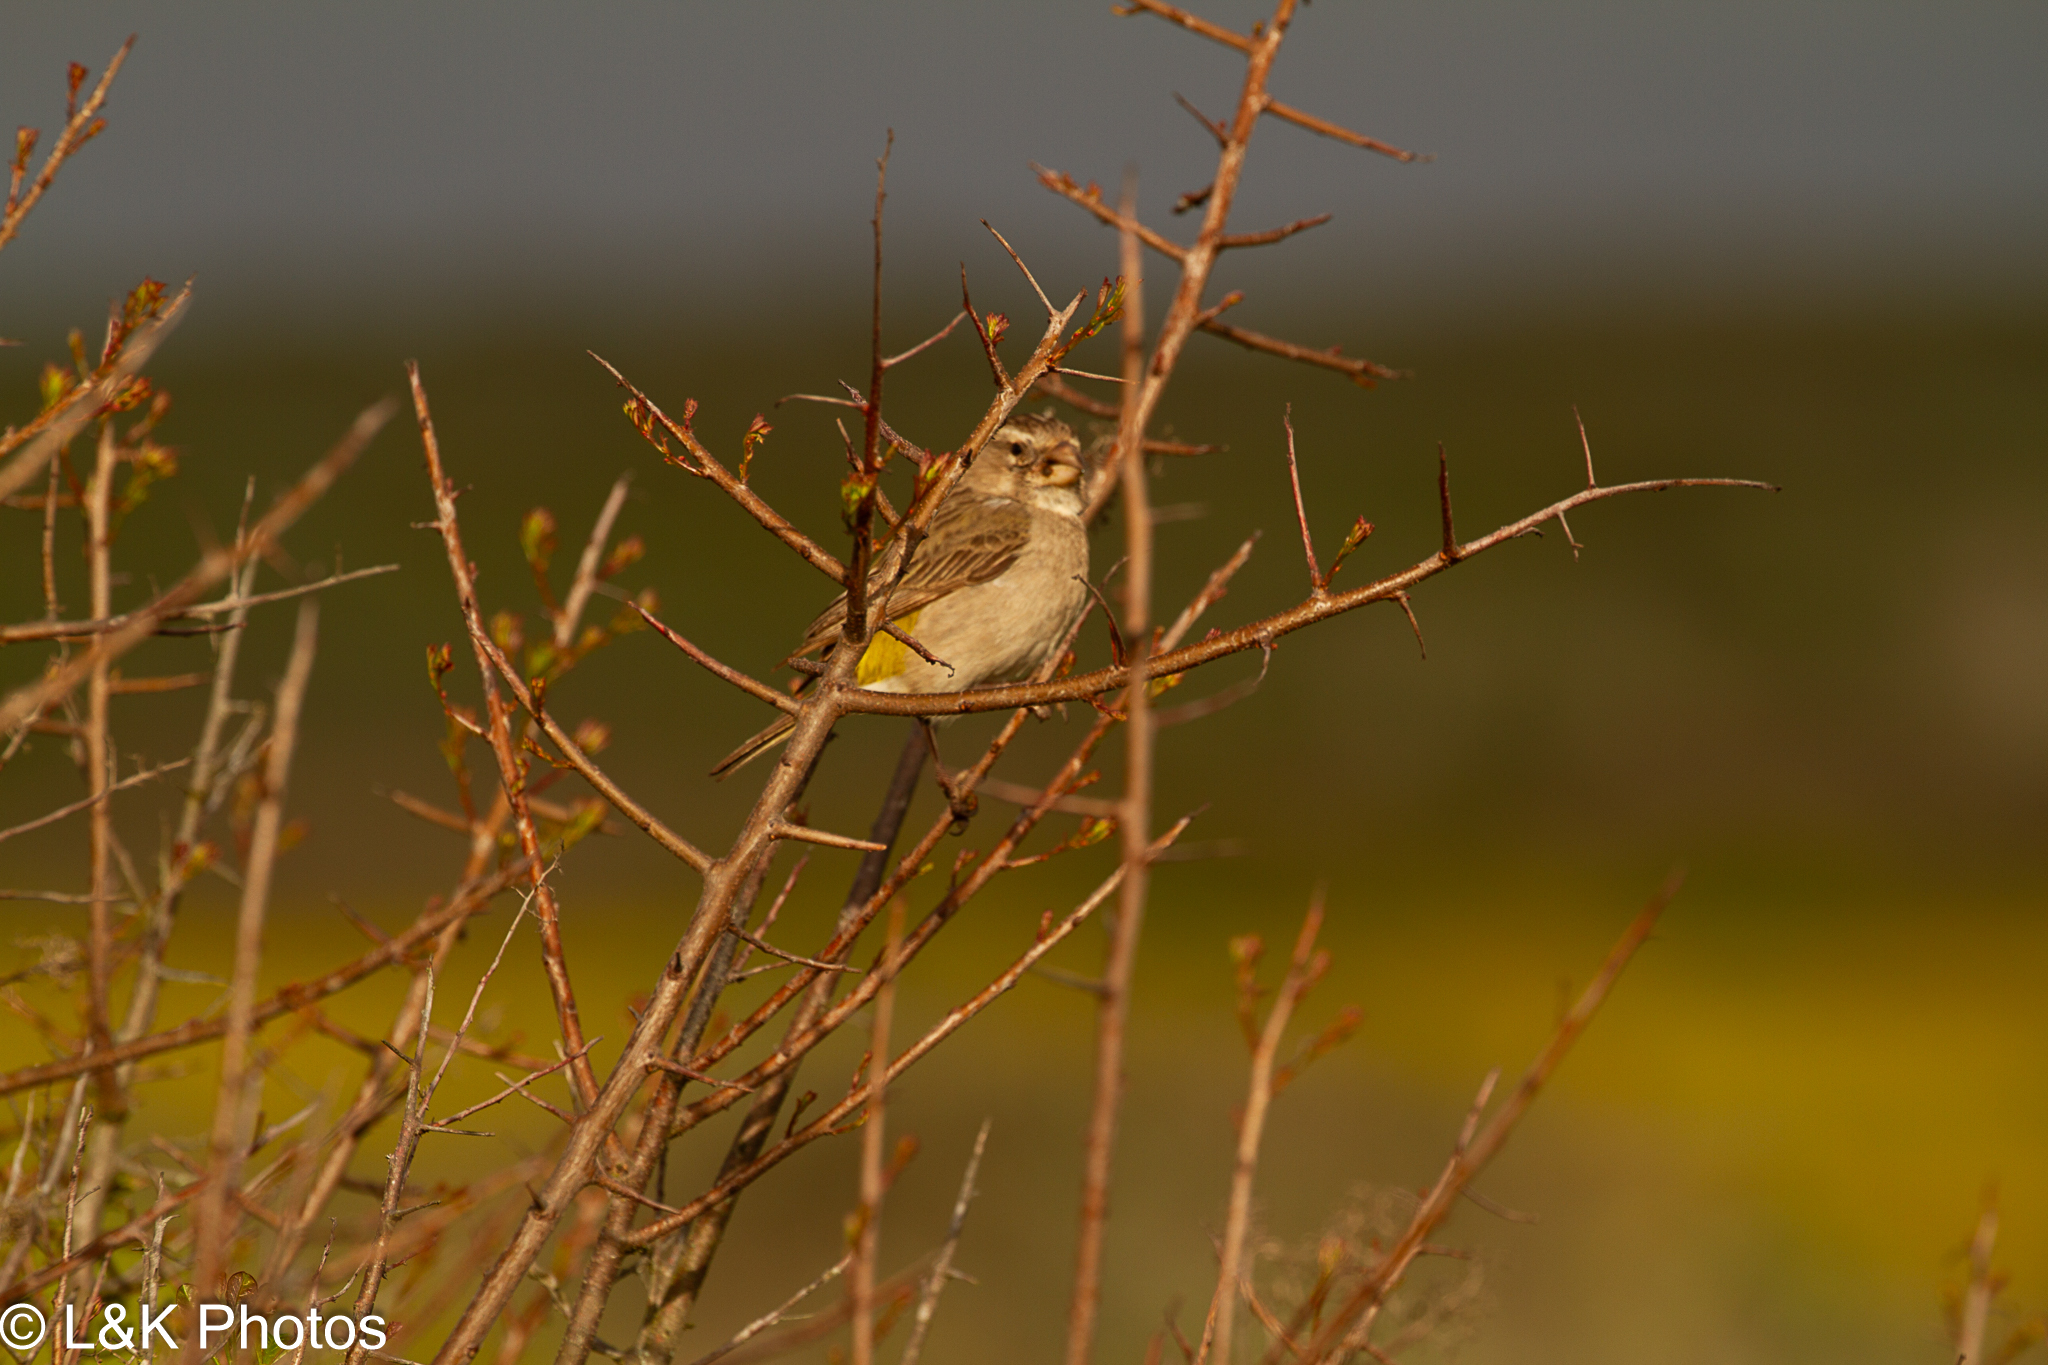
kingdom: Animalia
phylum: Chordata
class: Aves
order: Passeriformes
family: Fringillidae
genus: Crithagra
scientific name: Crithagra albogularis
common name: White-throated canary
